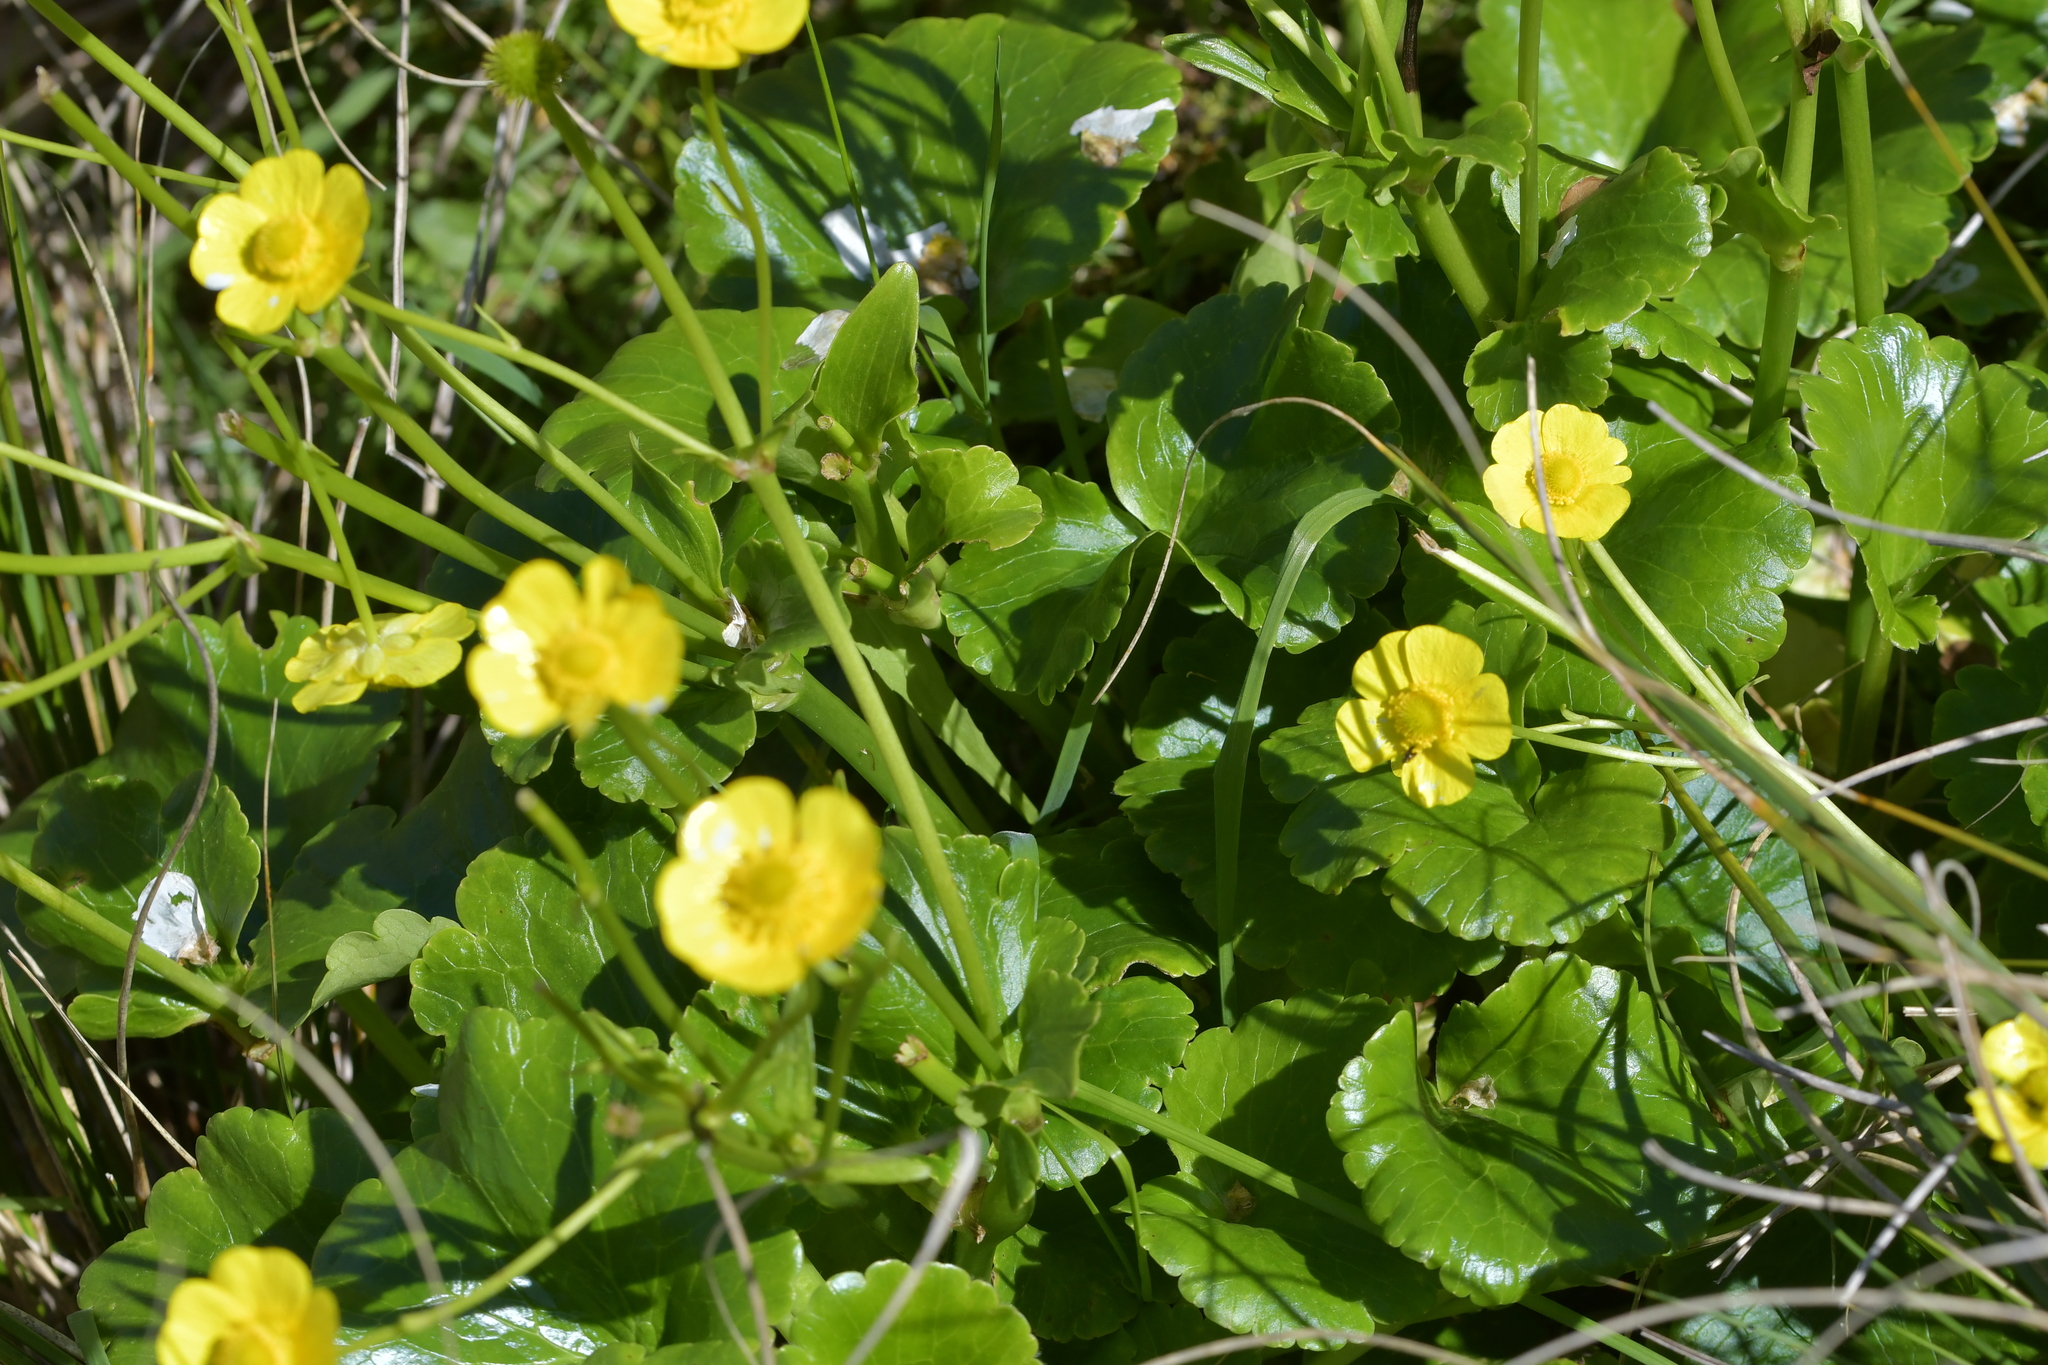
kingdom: Plantae
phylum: Tracheophyta
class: Magnoliopsida
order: Ranunculales
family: Ranunculaceae
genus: Ranunculus
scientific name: Ranunculus insignis
